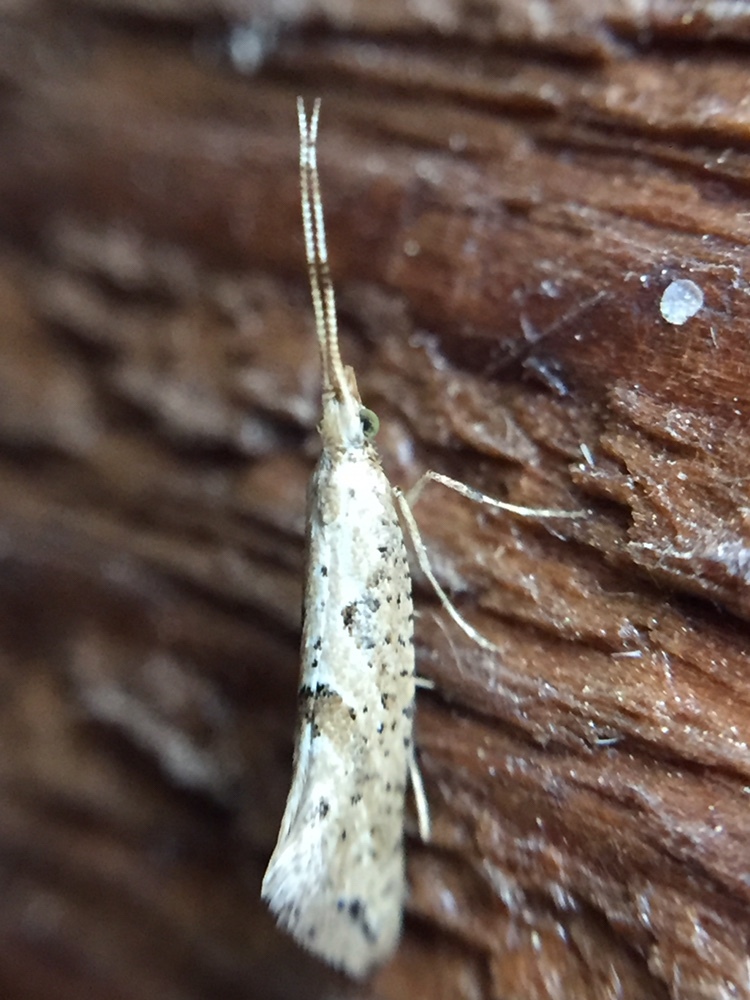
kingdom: Animalia
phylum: Arthropoda
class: Insecta
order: Lepidoptera
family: Plutellidae
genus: Leuroperna
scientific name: Leuroperna sera
